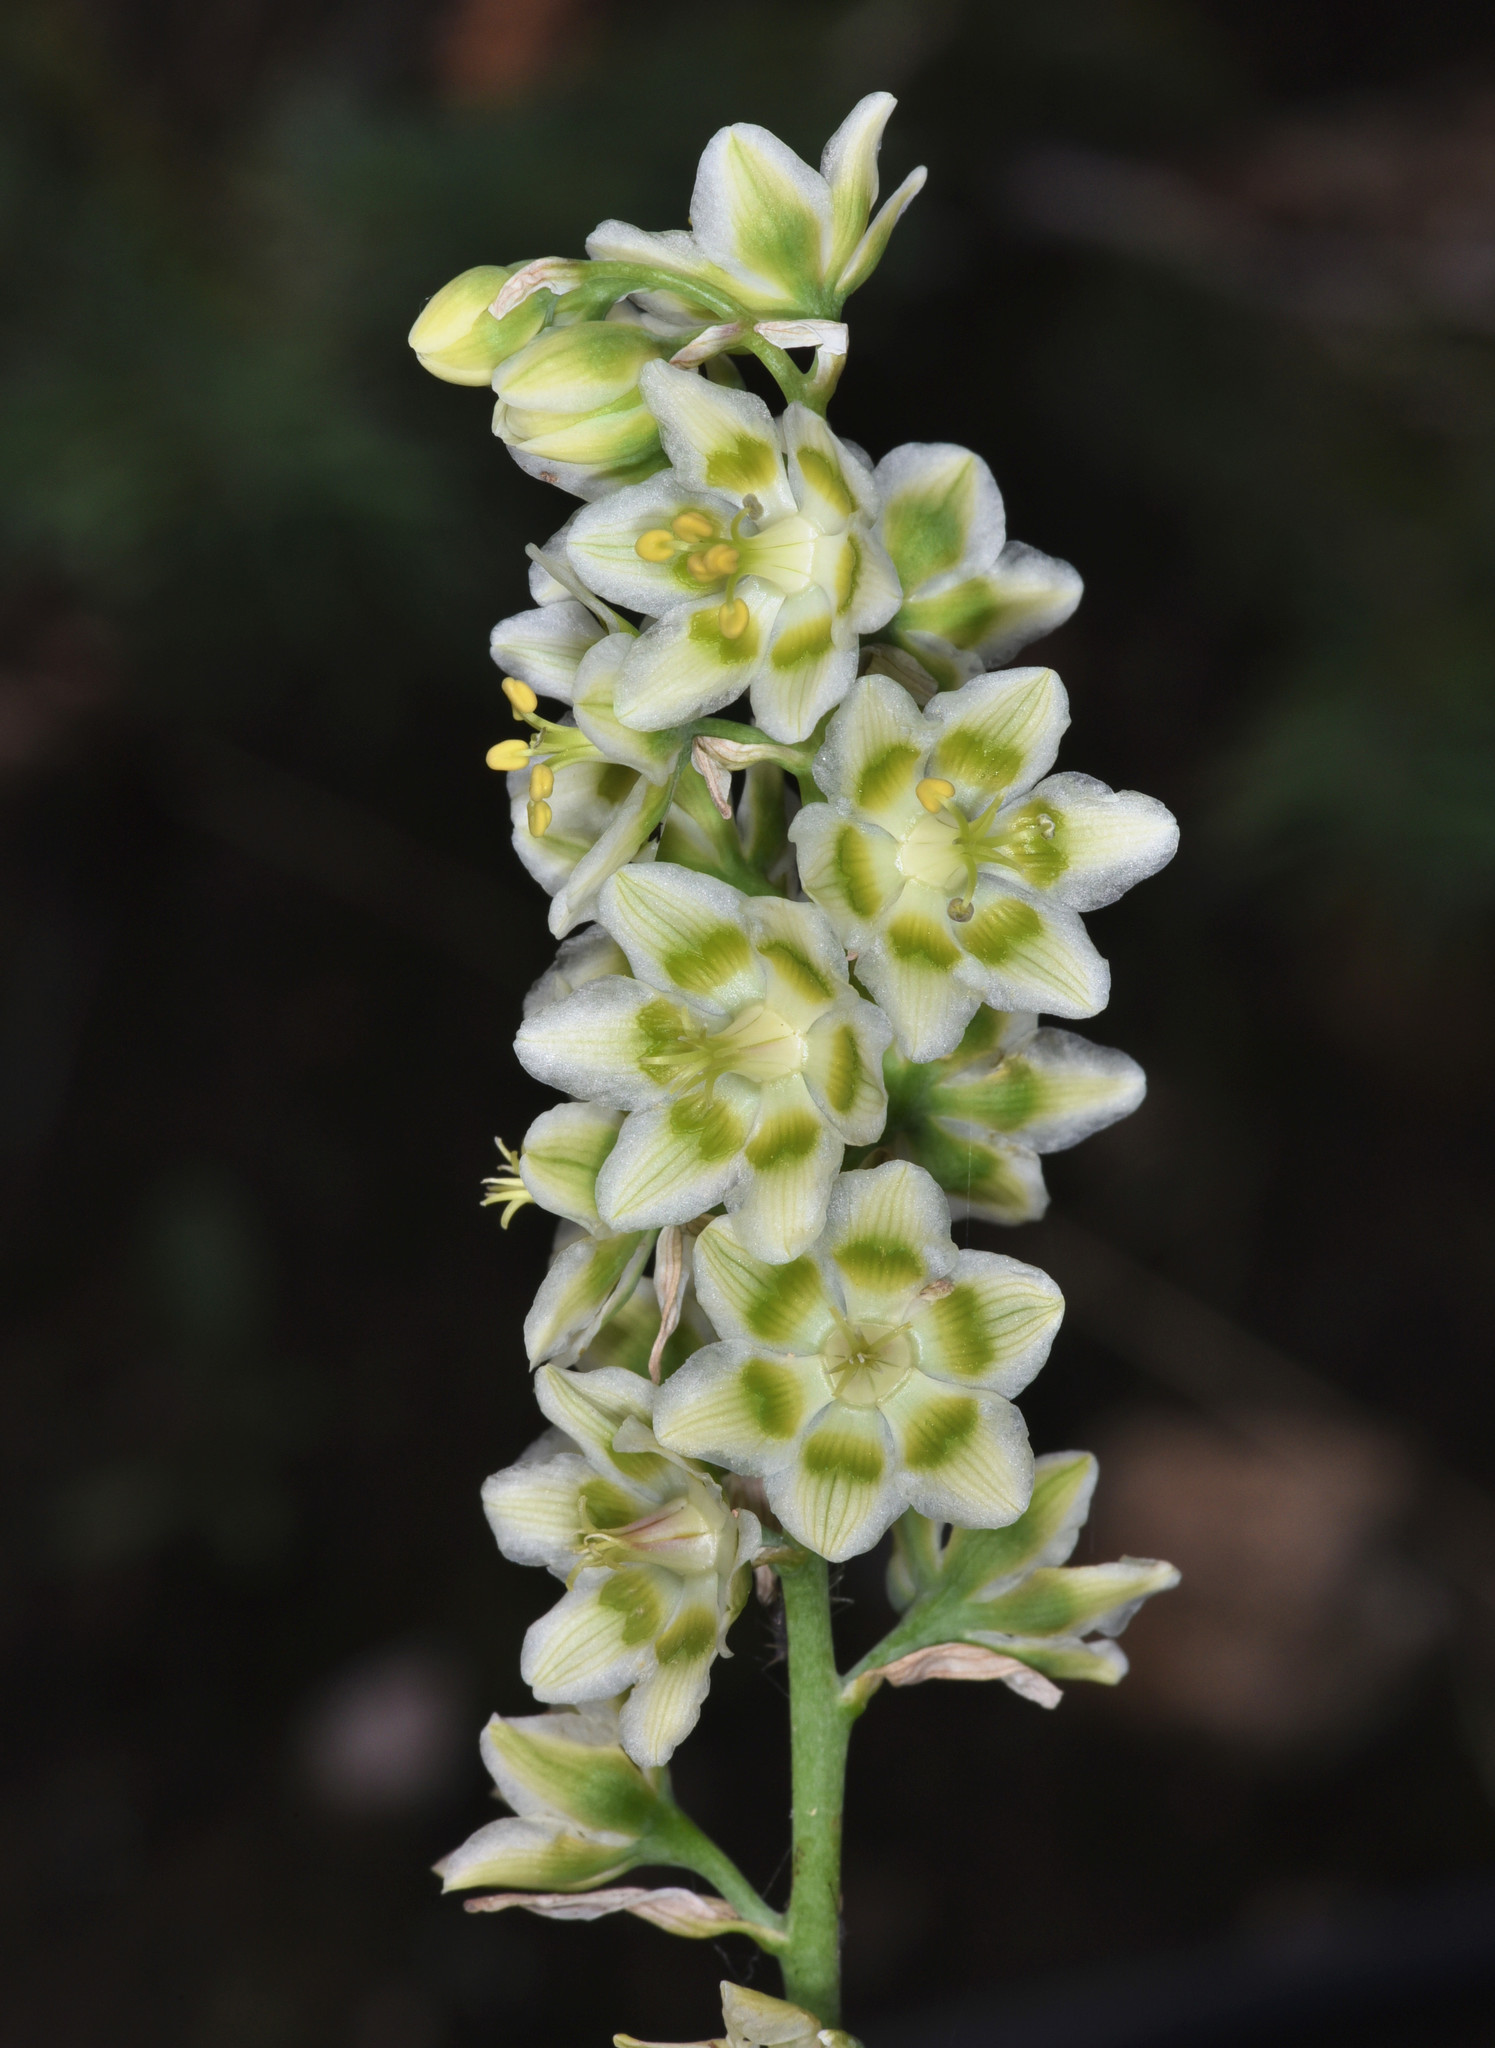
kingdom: Plantae
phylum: Tracheophyta
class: Liliopsida
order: Liliales
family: Melanthiaceae
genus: Anticlea
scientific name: Anticlea elegans
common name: Mountain death camas
